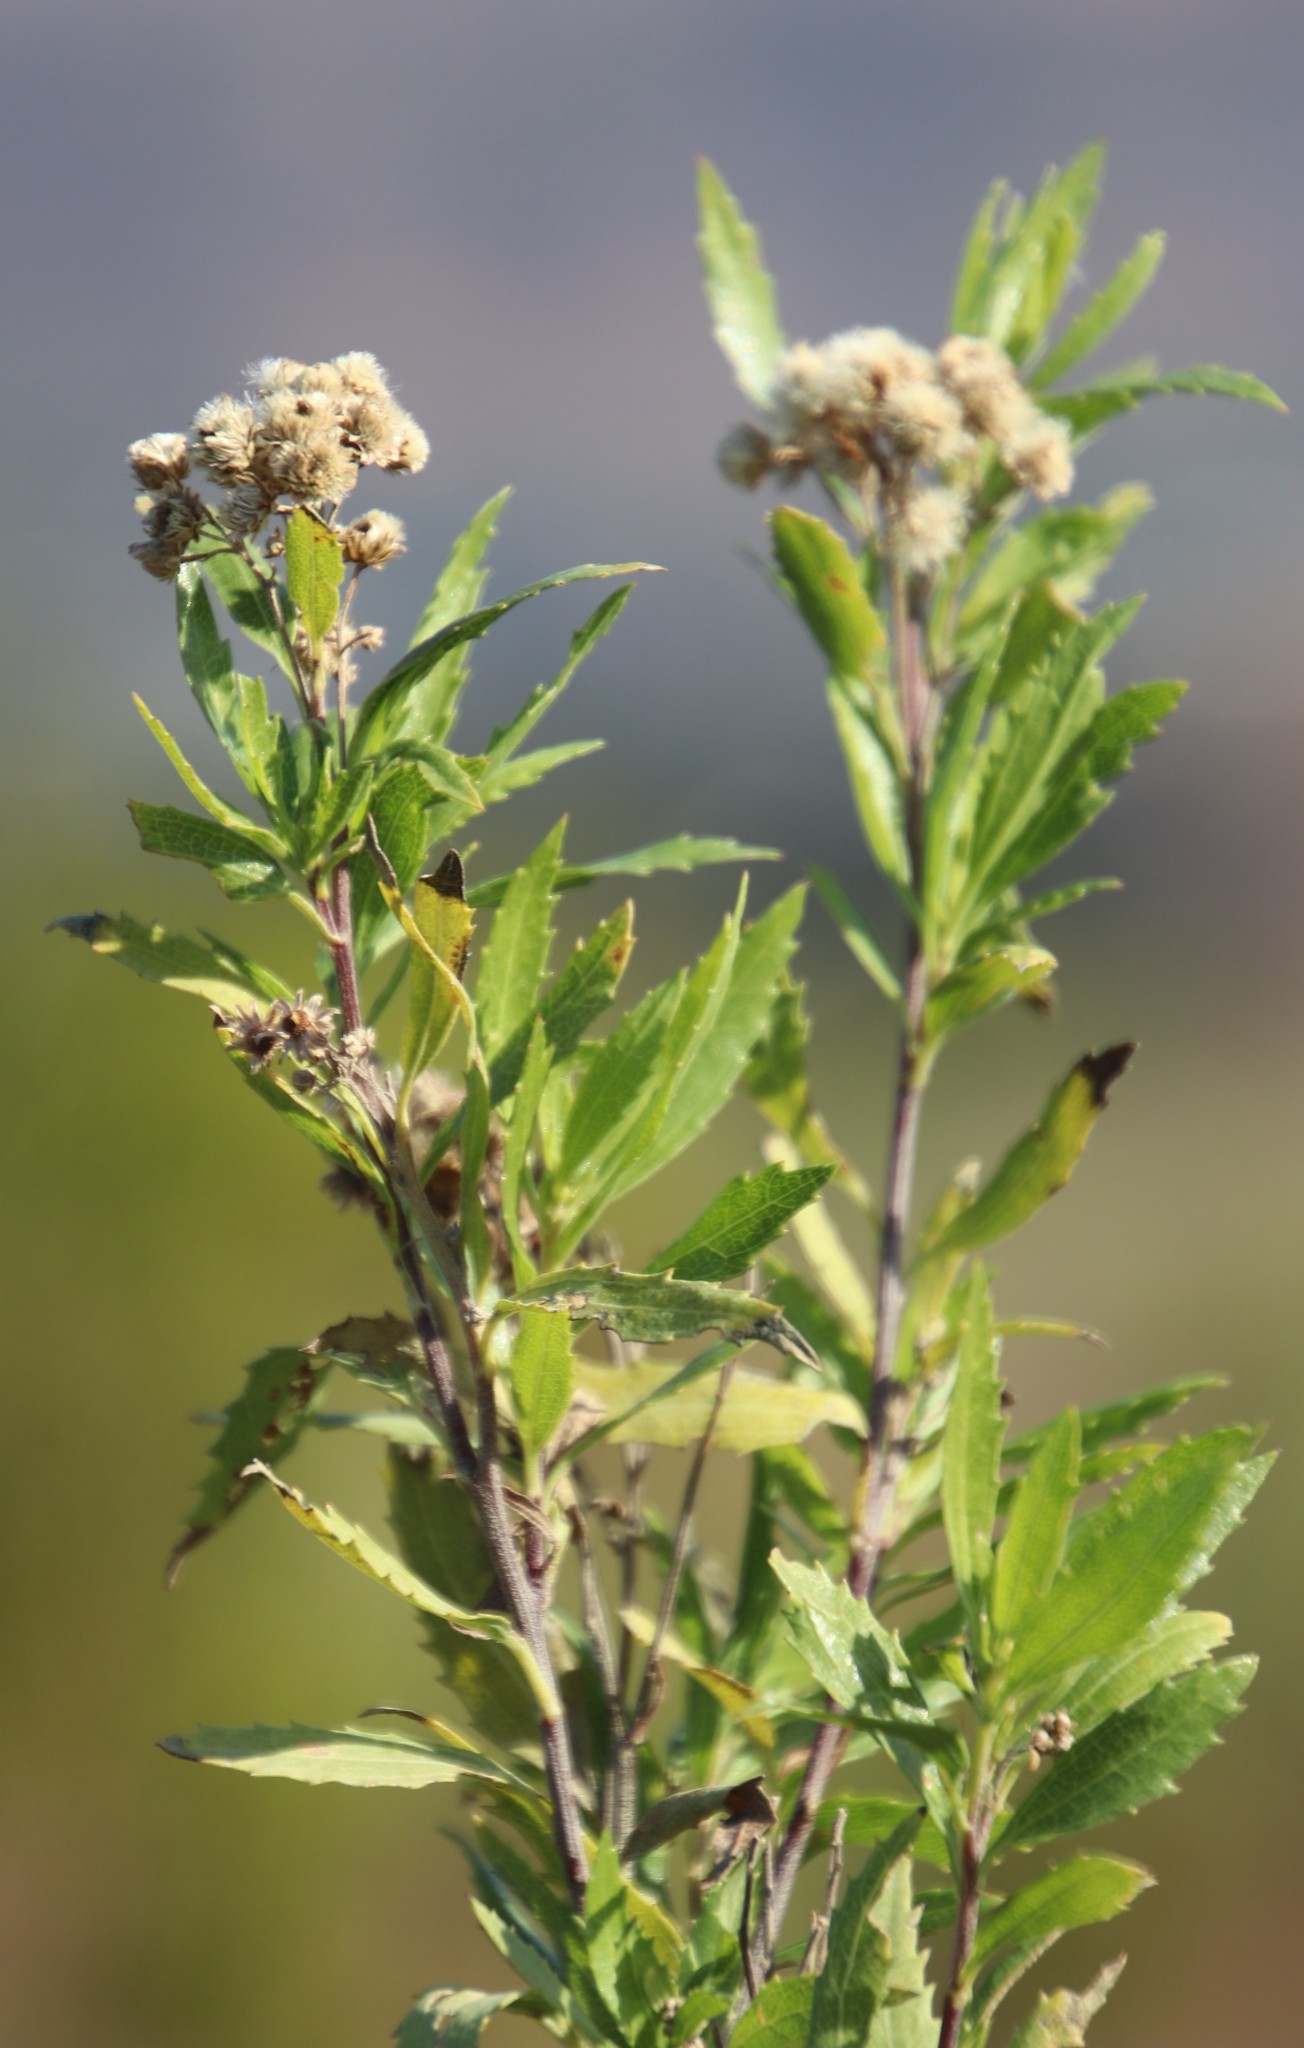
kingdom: Plantae
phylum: Tracheophyta
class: Magnoliopsida
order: Asterales
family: Asteraceae
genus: Nidorella
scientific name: Nidorella ivifolia
